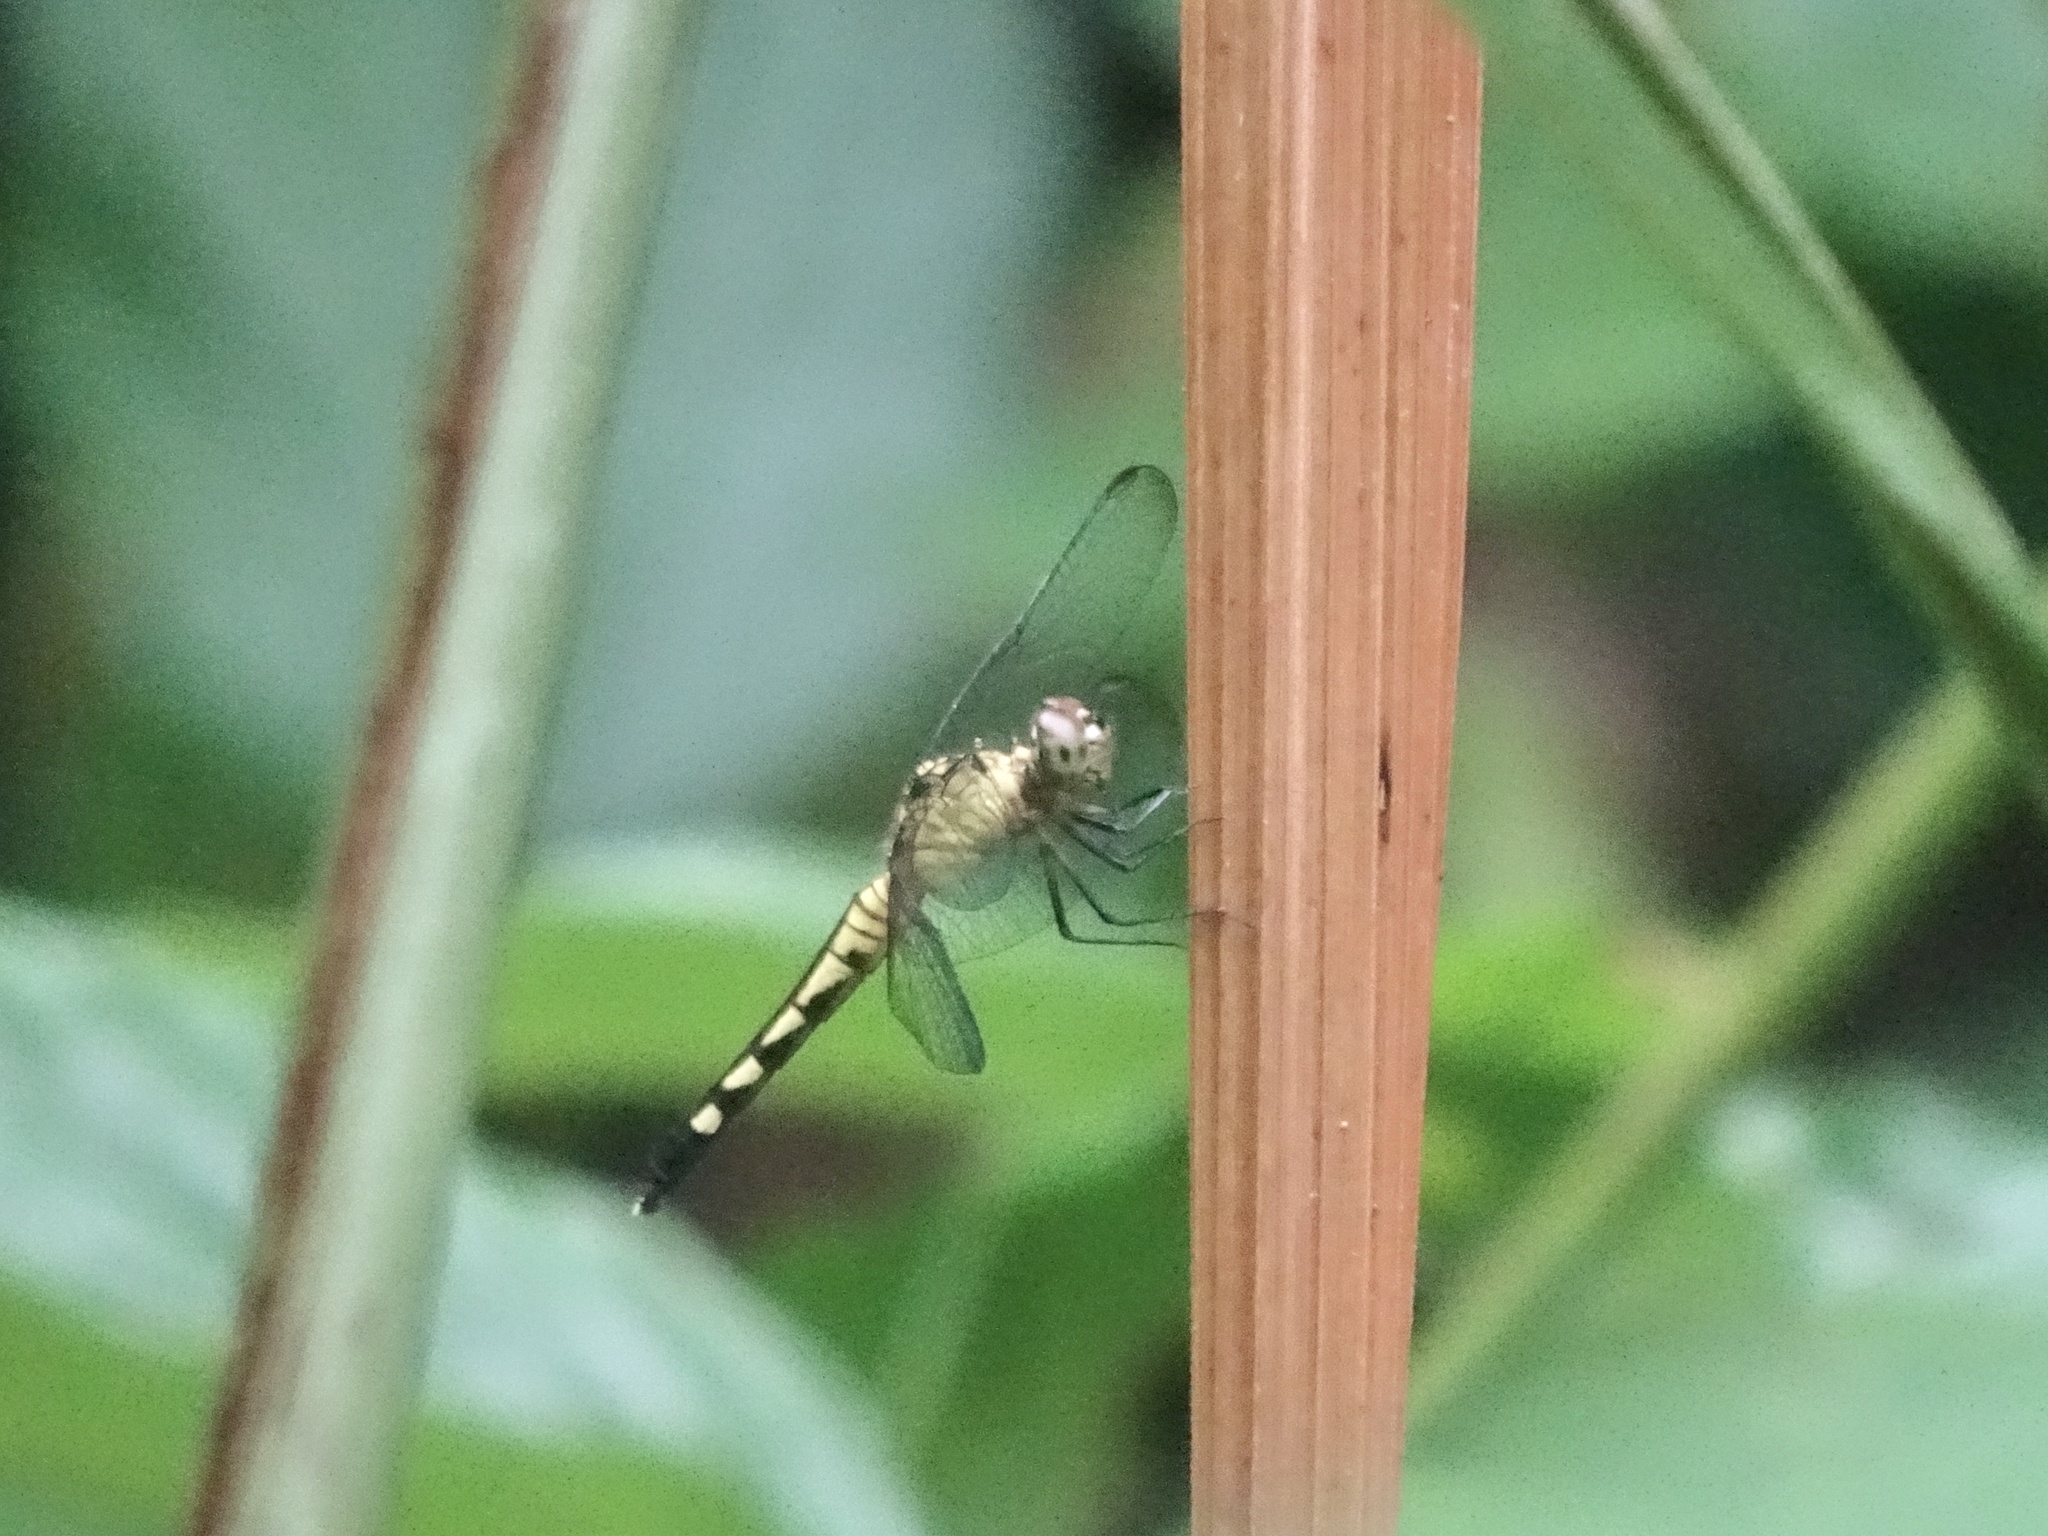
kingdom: Animalia
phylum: Arthropoda
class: Insecta
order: Odonata
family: Libellulidae
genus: Erythrodiplax
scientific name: Erythrodiplax kimminsi
